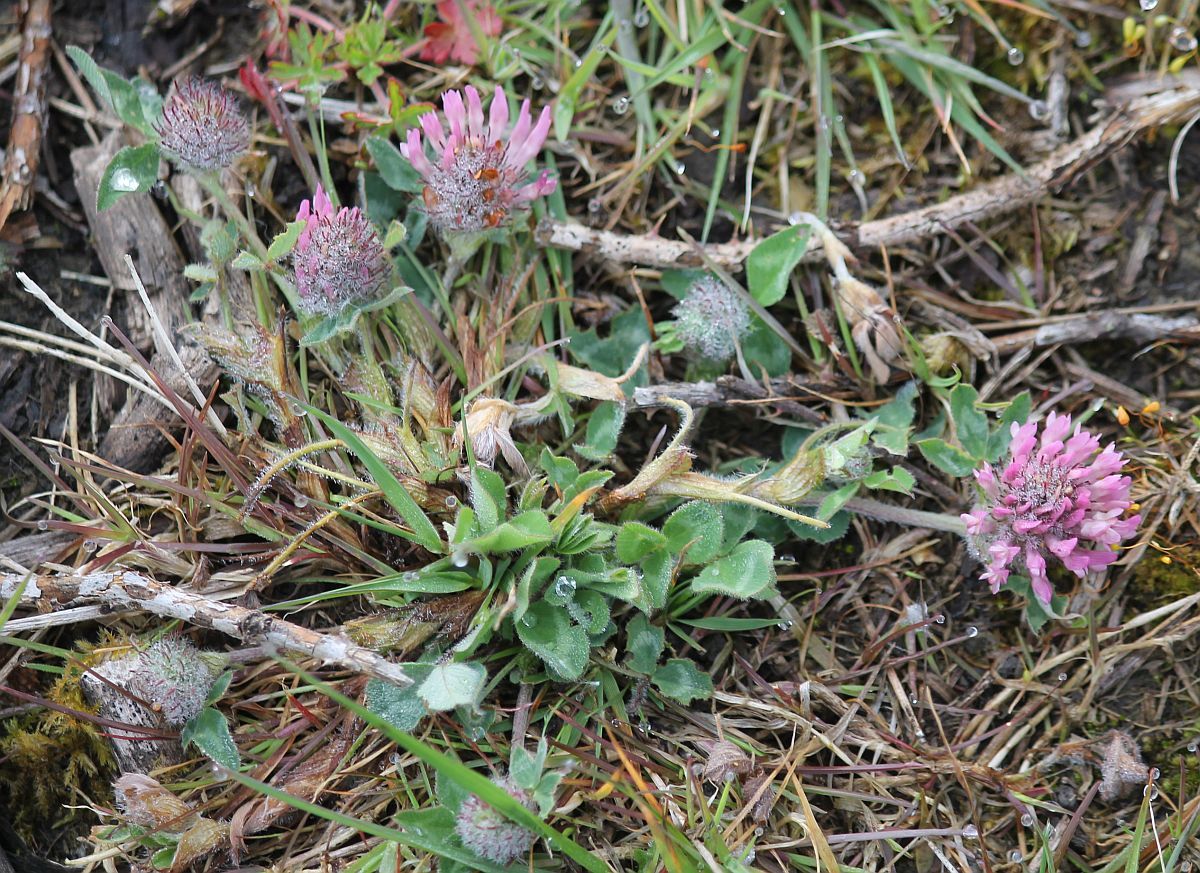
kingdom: Plantae
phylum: Tracheophyta
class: Magnoliopsida
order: Fabales
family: Fabaceae
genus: Trifolium
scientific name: Trifolium pratense
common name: Red clover
